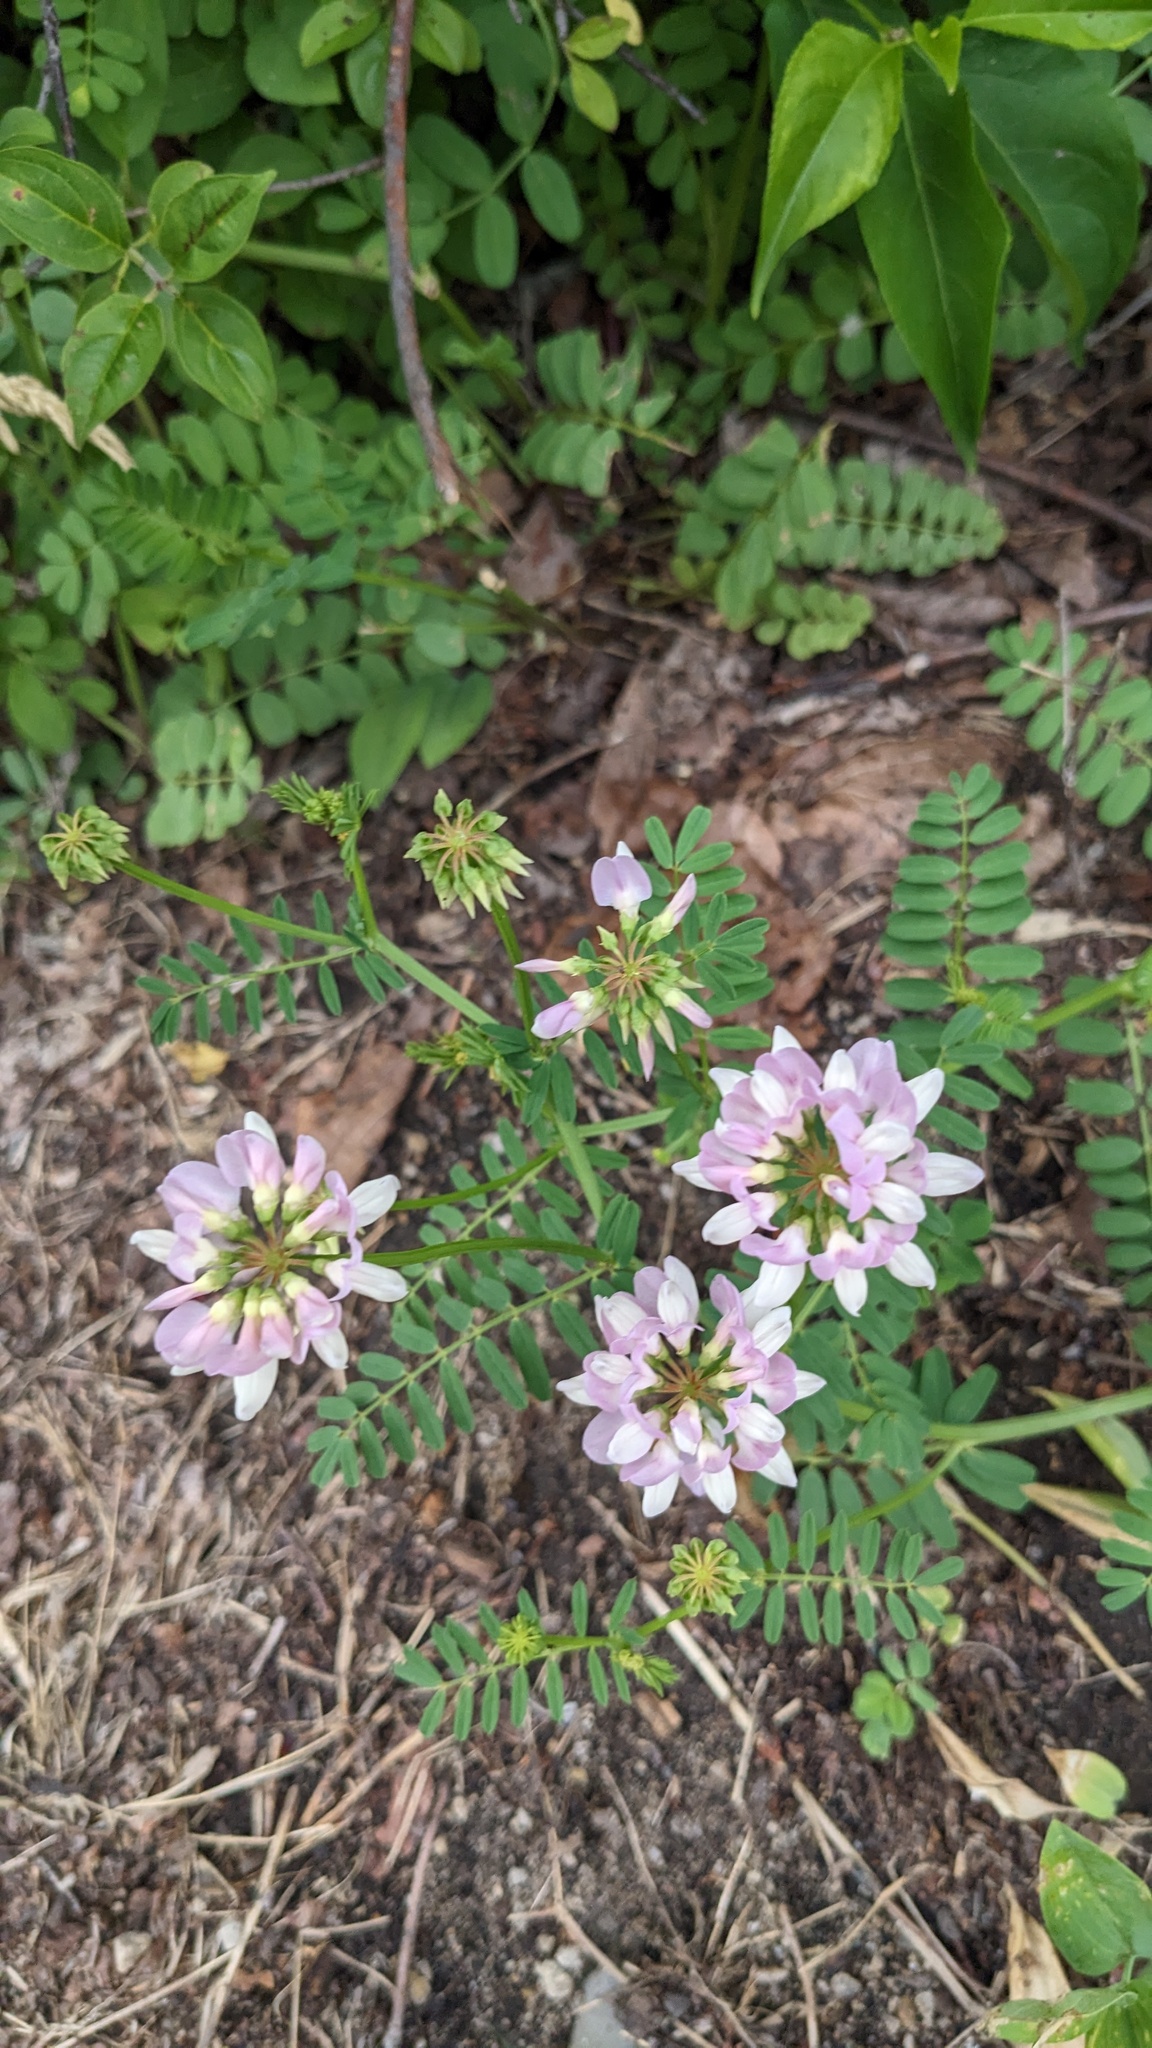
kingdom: Plantae
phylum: Tracheophyta
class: Magnoliopsida
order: Fabales
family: Fabaceae
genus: Coronilla
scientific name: Coronilla varia
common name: Crownvetch
